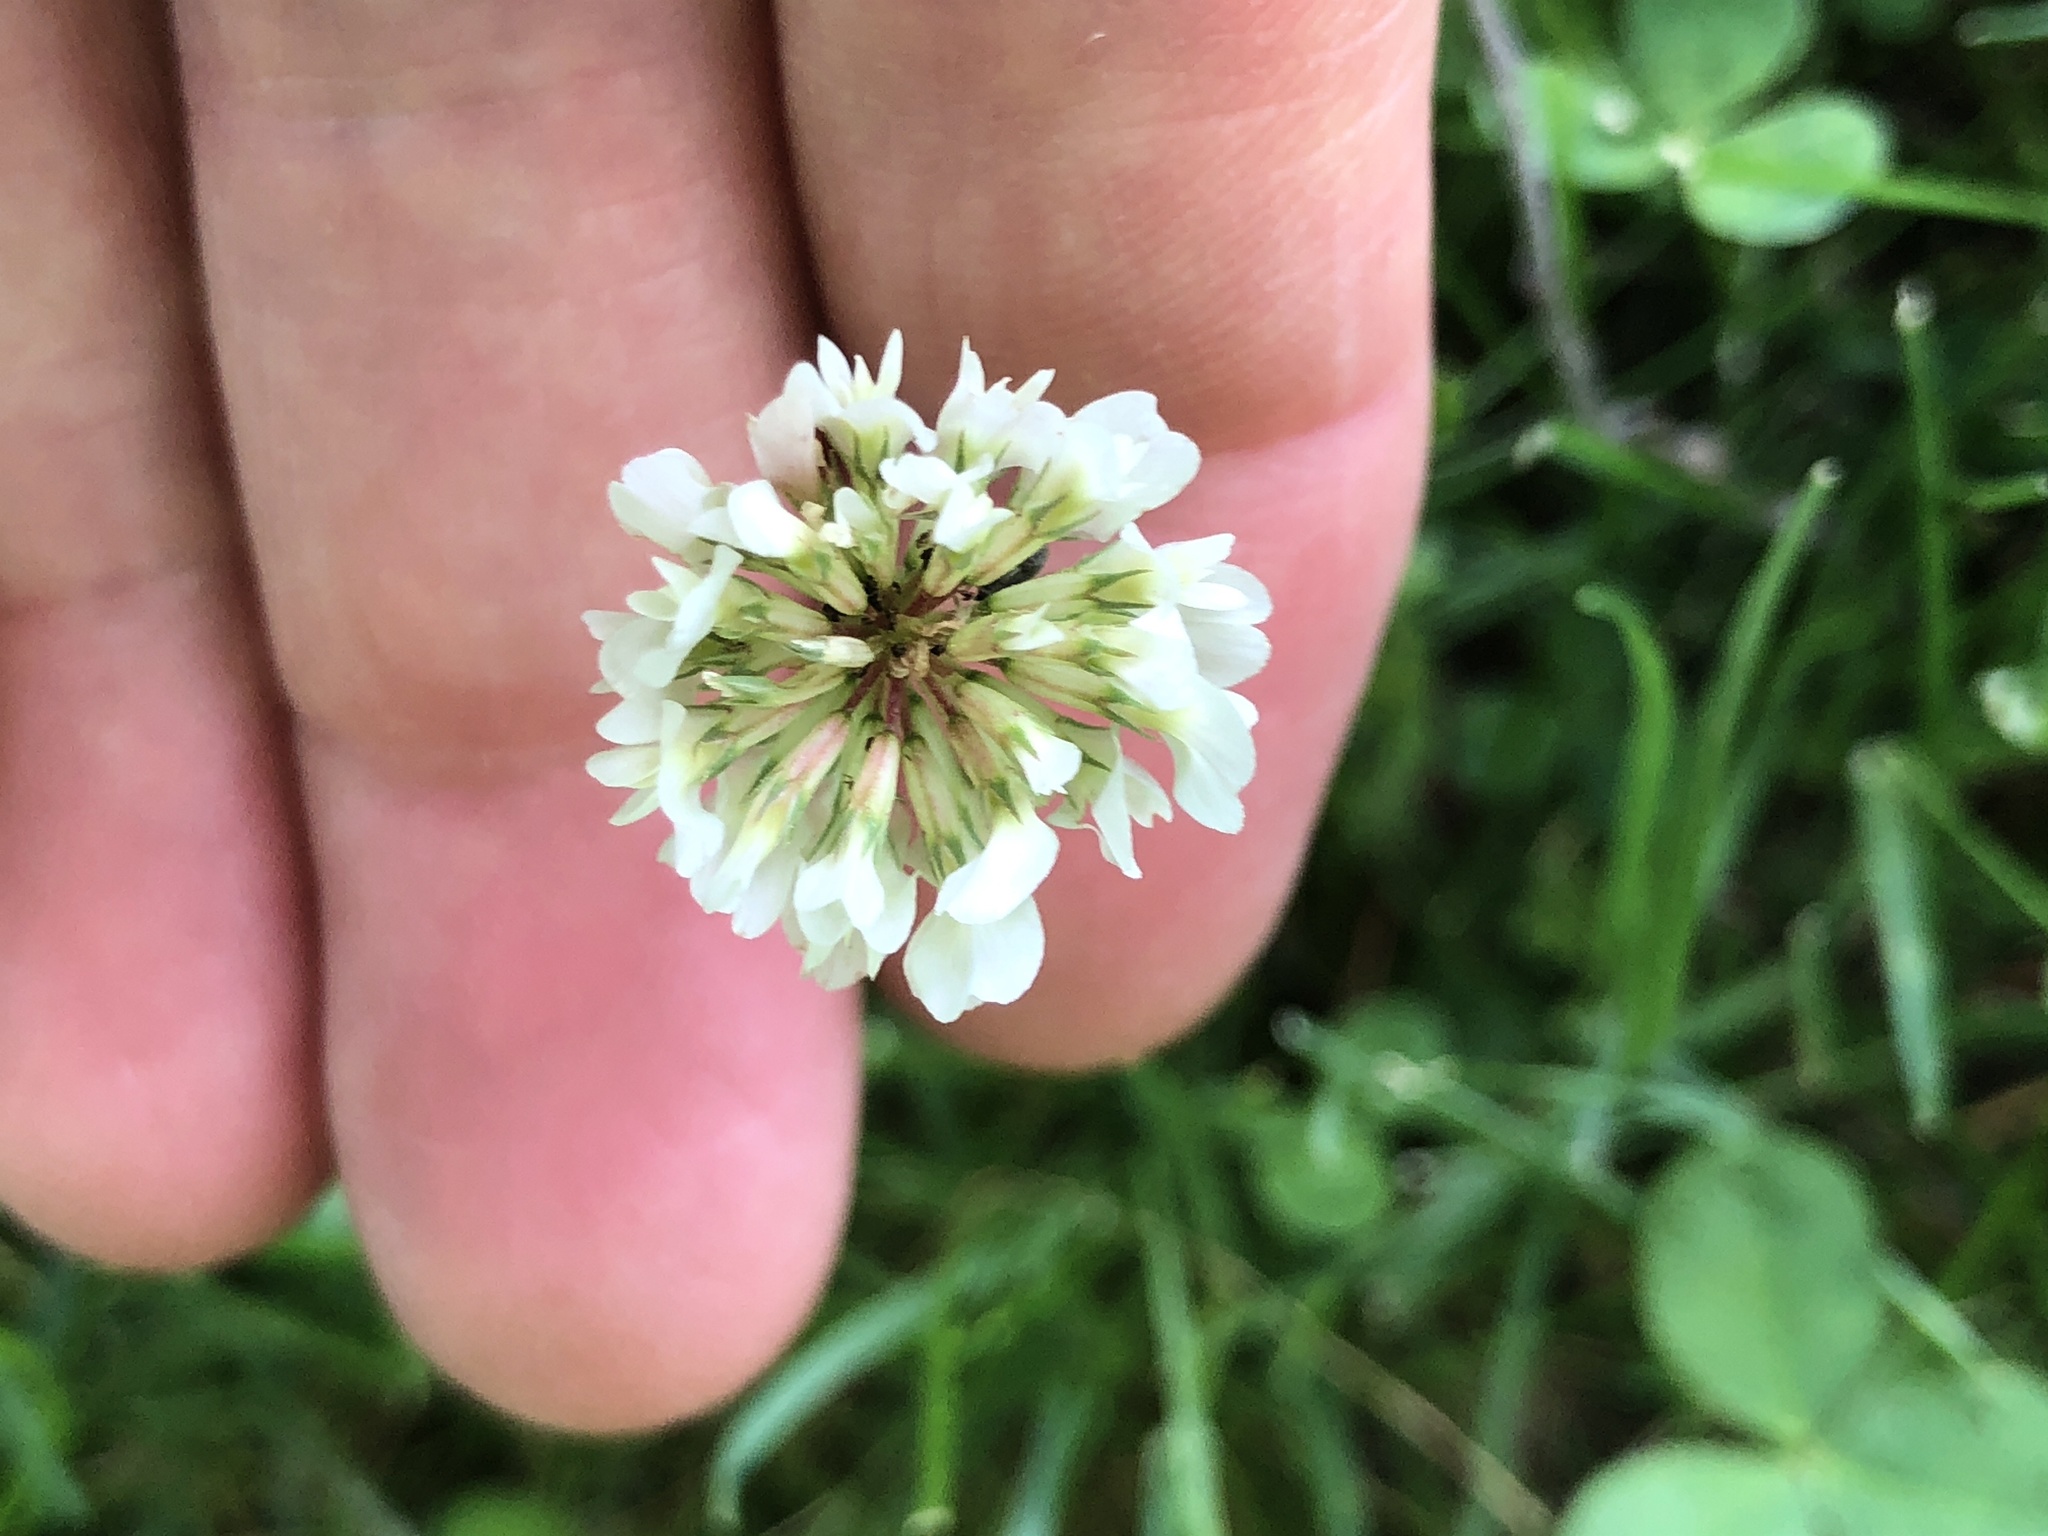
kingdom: Plantae
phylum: Tracheophyta
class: Magnoliopsida
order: Fabales
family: Fabaceae
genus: Trifolium
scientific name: Trifolium repens
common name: White clover
